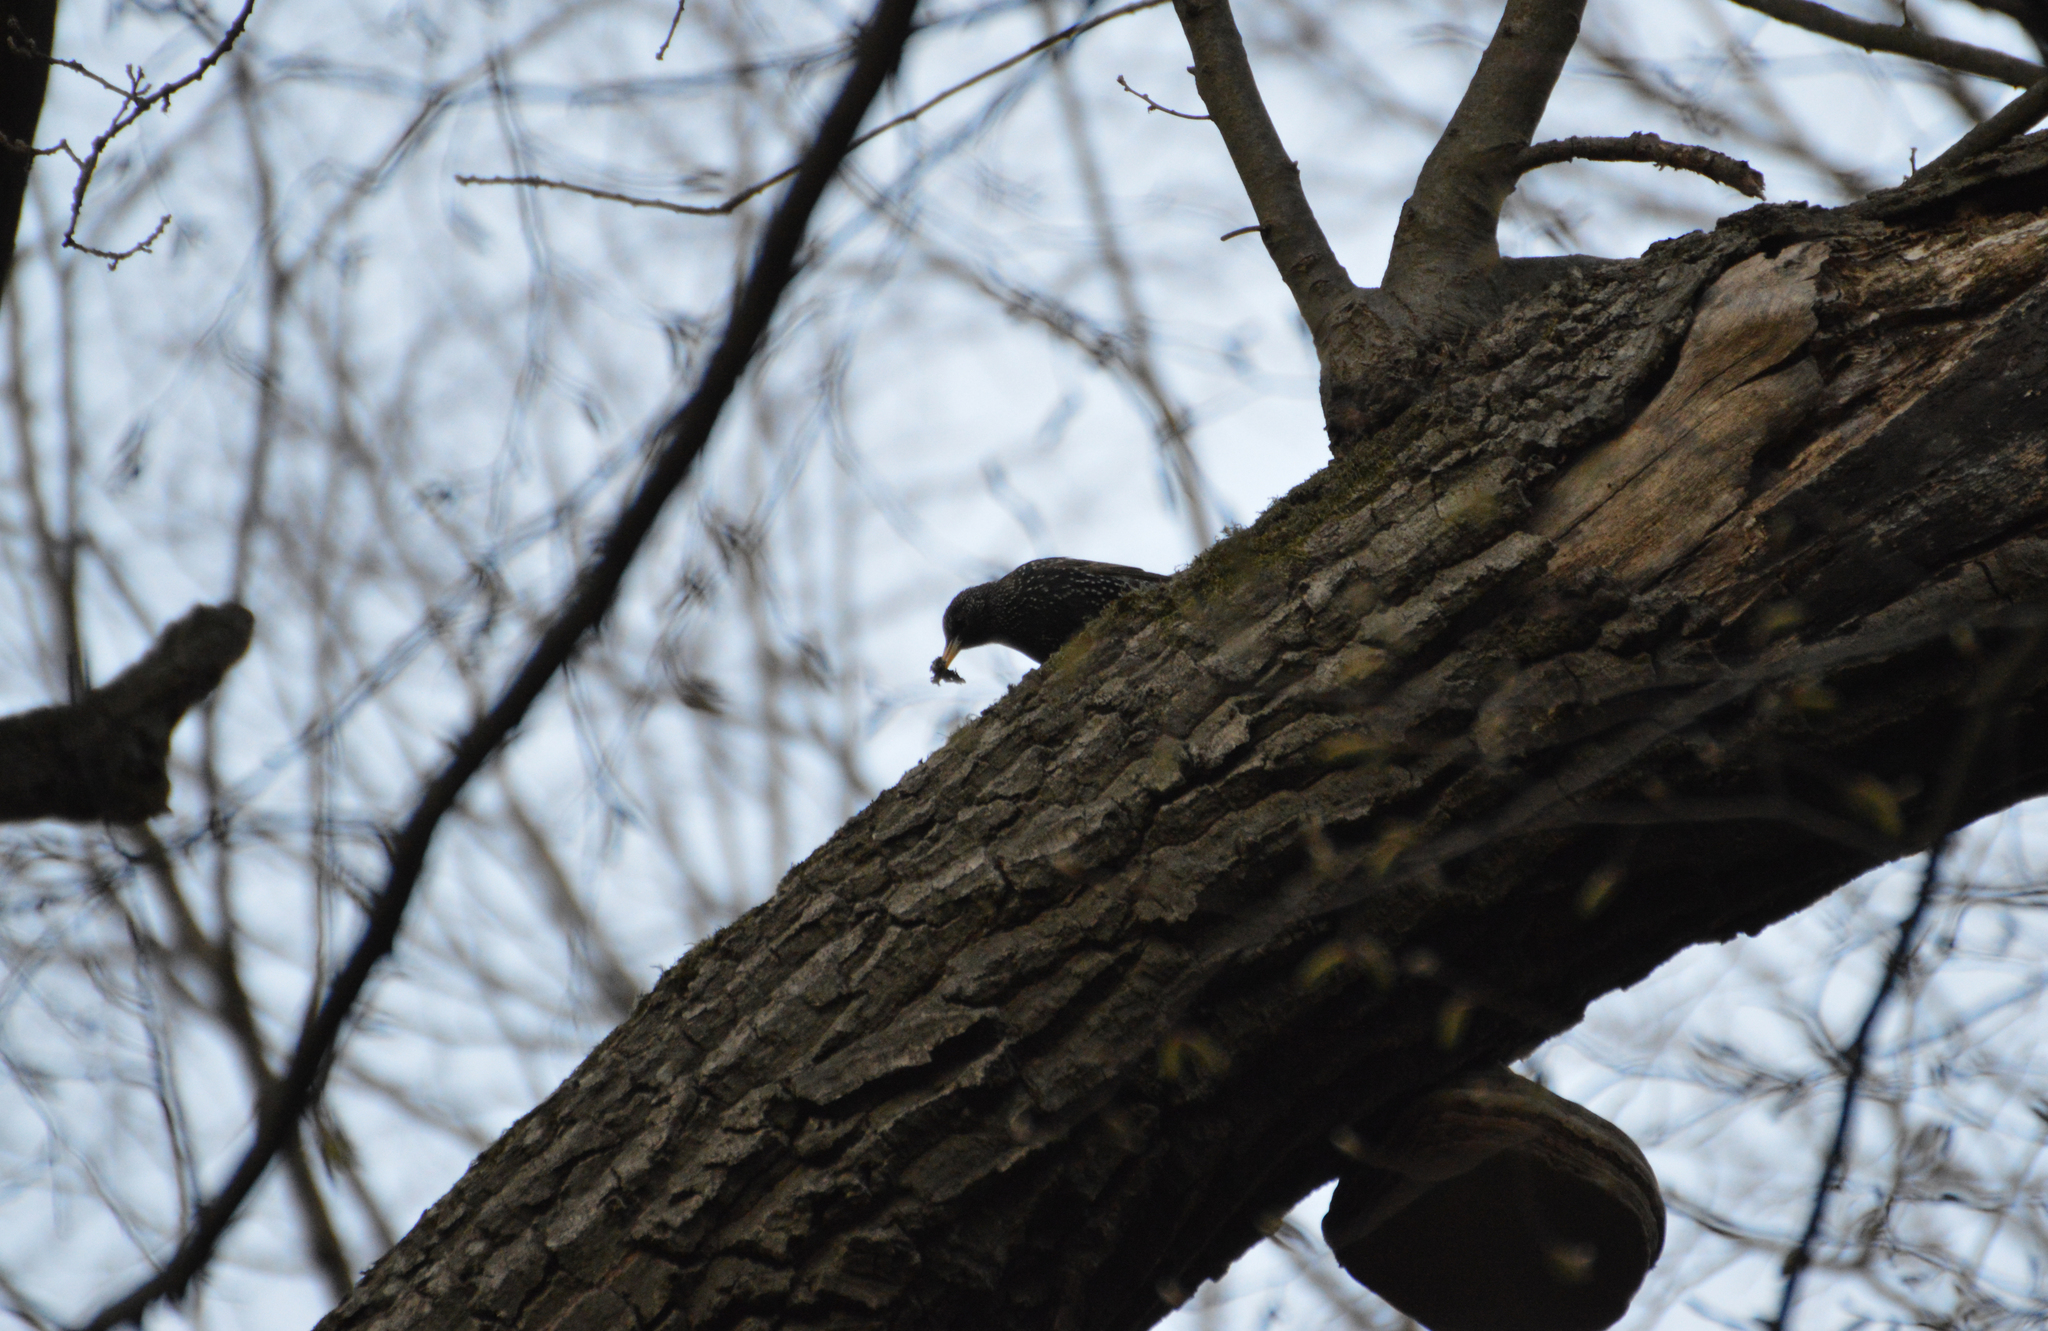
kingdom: Animalia
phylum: Chordata
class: Aves
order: Passeriformes
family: Sturnidae
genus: Sturnus
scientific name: Sturnus vulgaris
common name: Common starling
